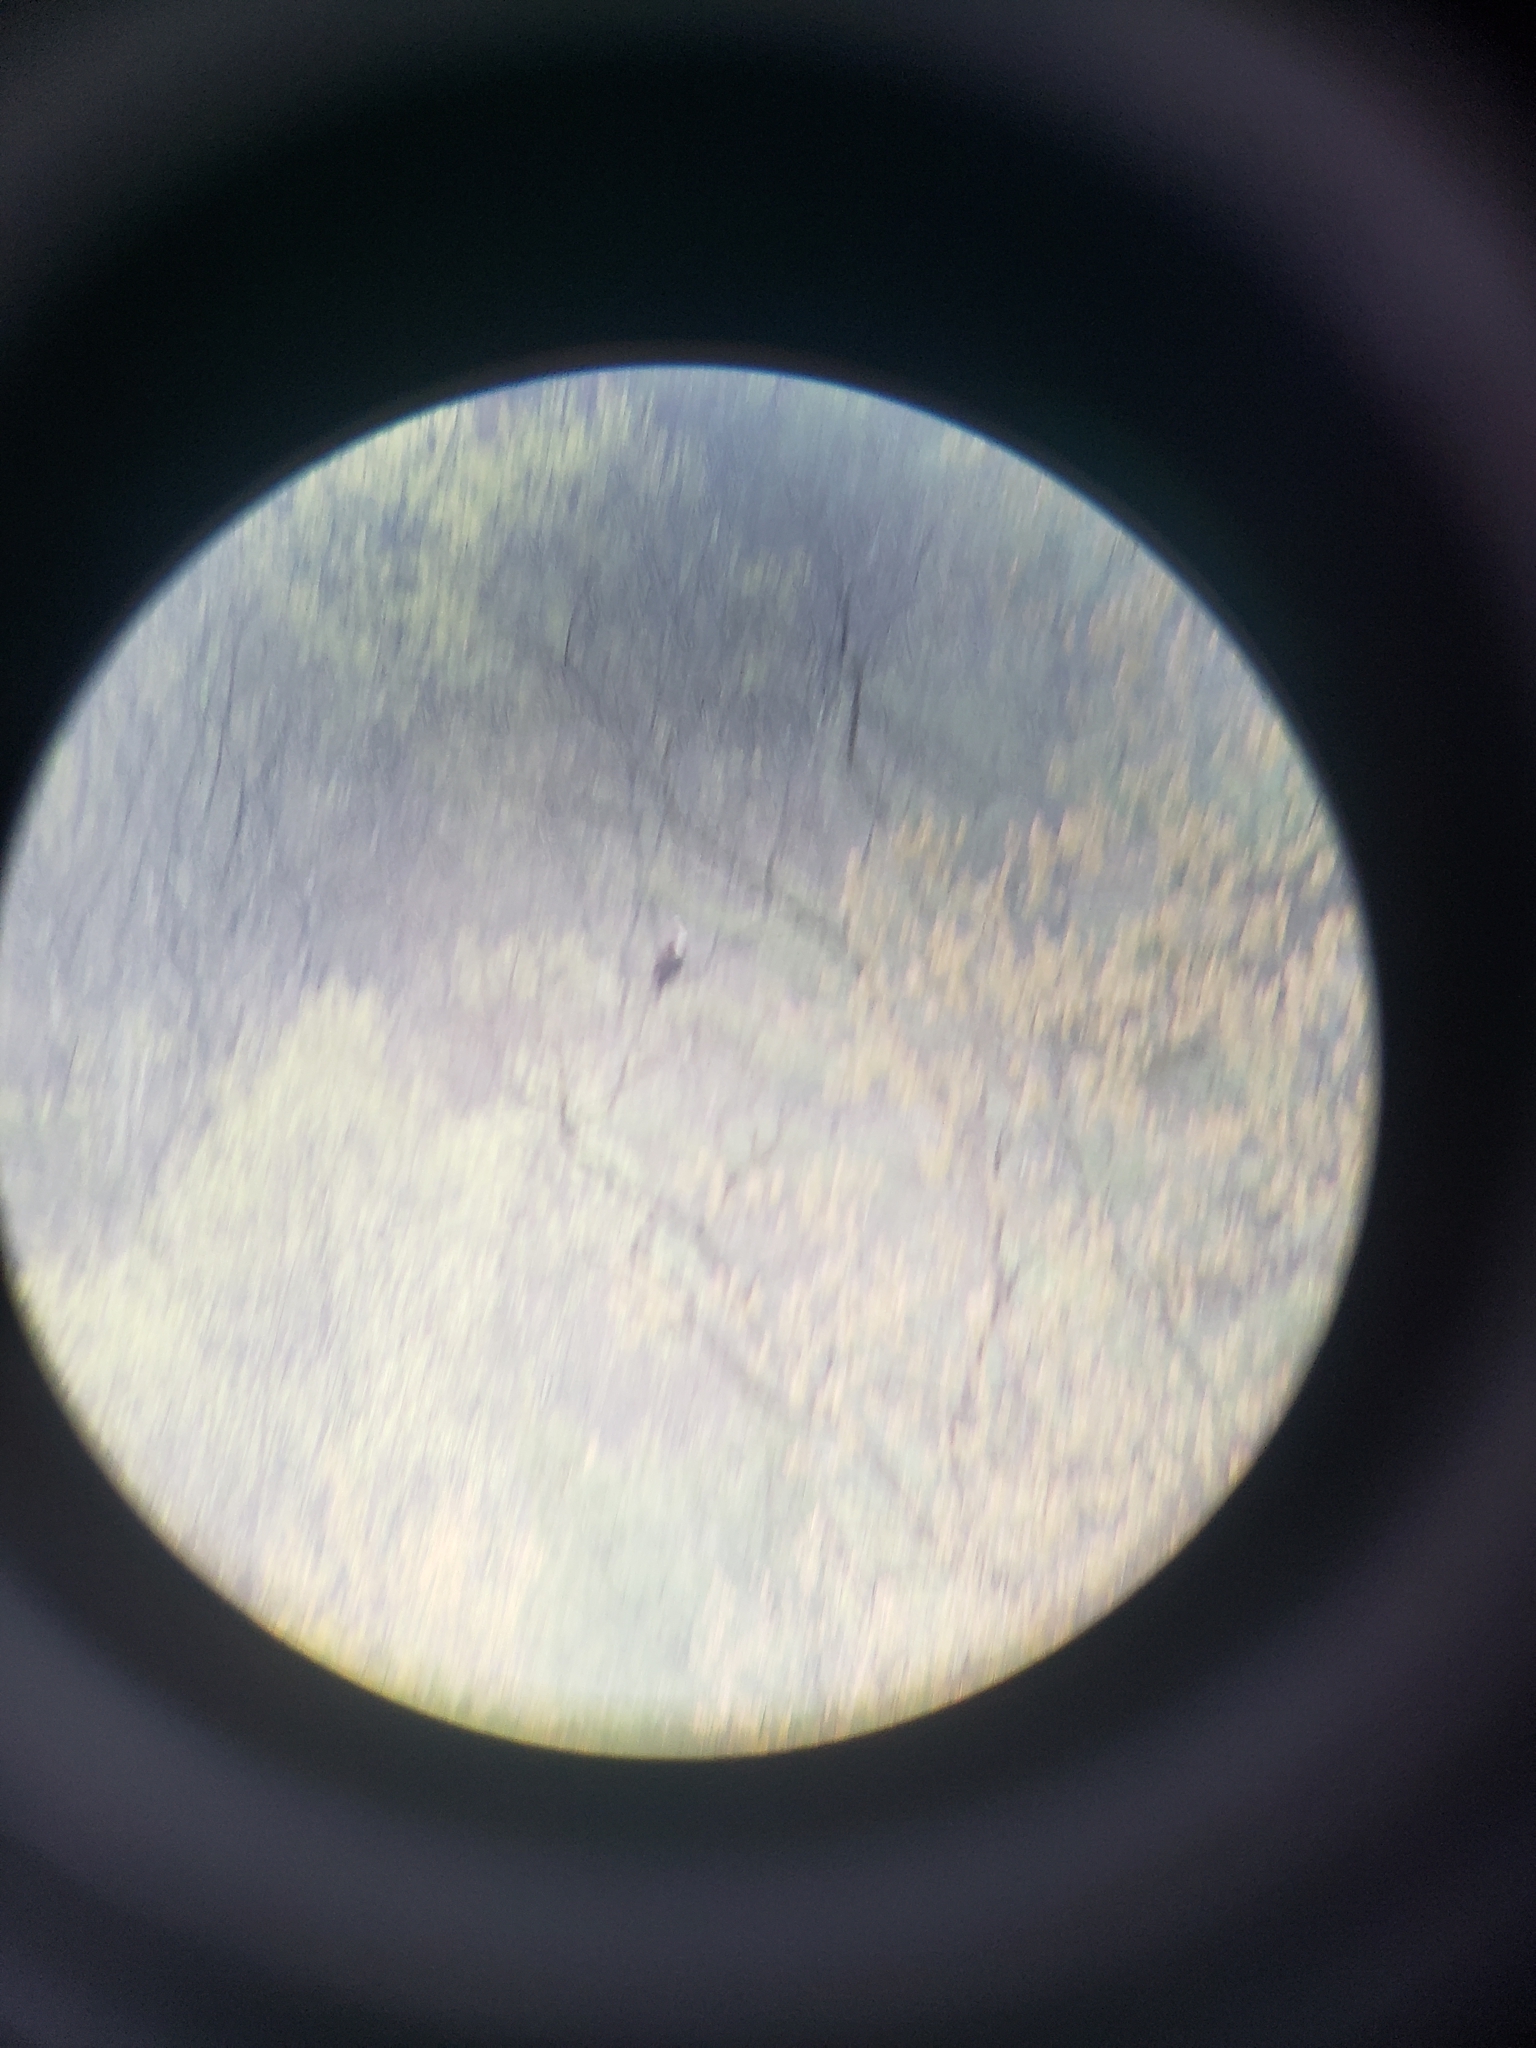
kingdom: Animalia
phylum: Chordata
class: Aves
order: Accipitriformes
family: Pandionidae
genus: Pandion
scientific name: Pandion haliaetus
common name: Osprey
